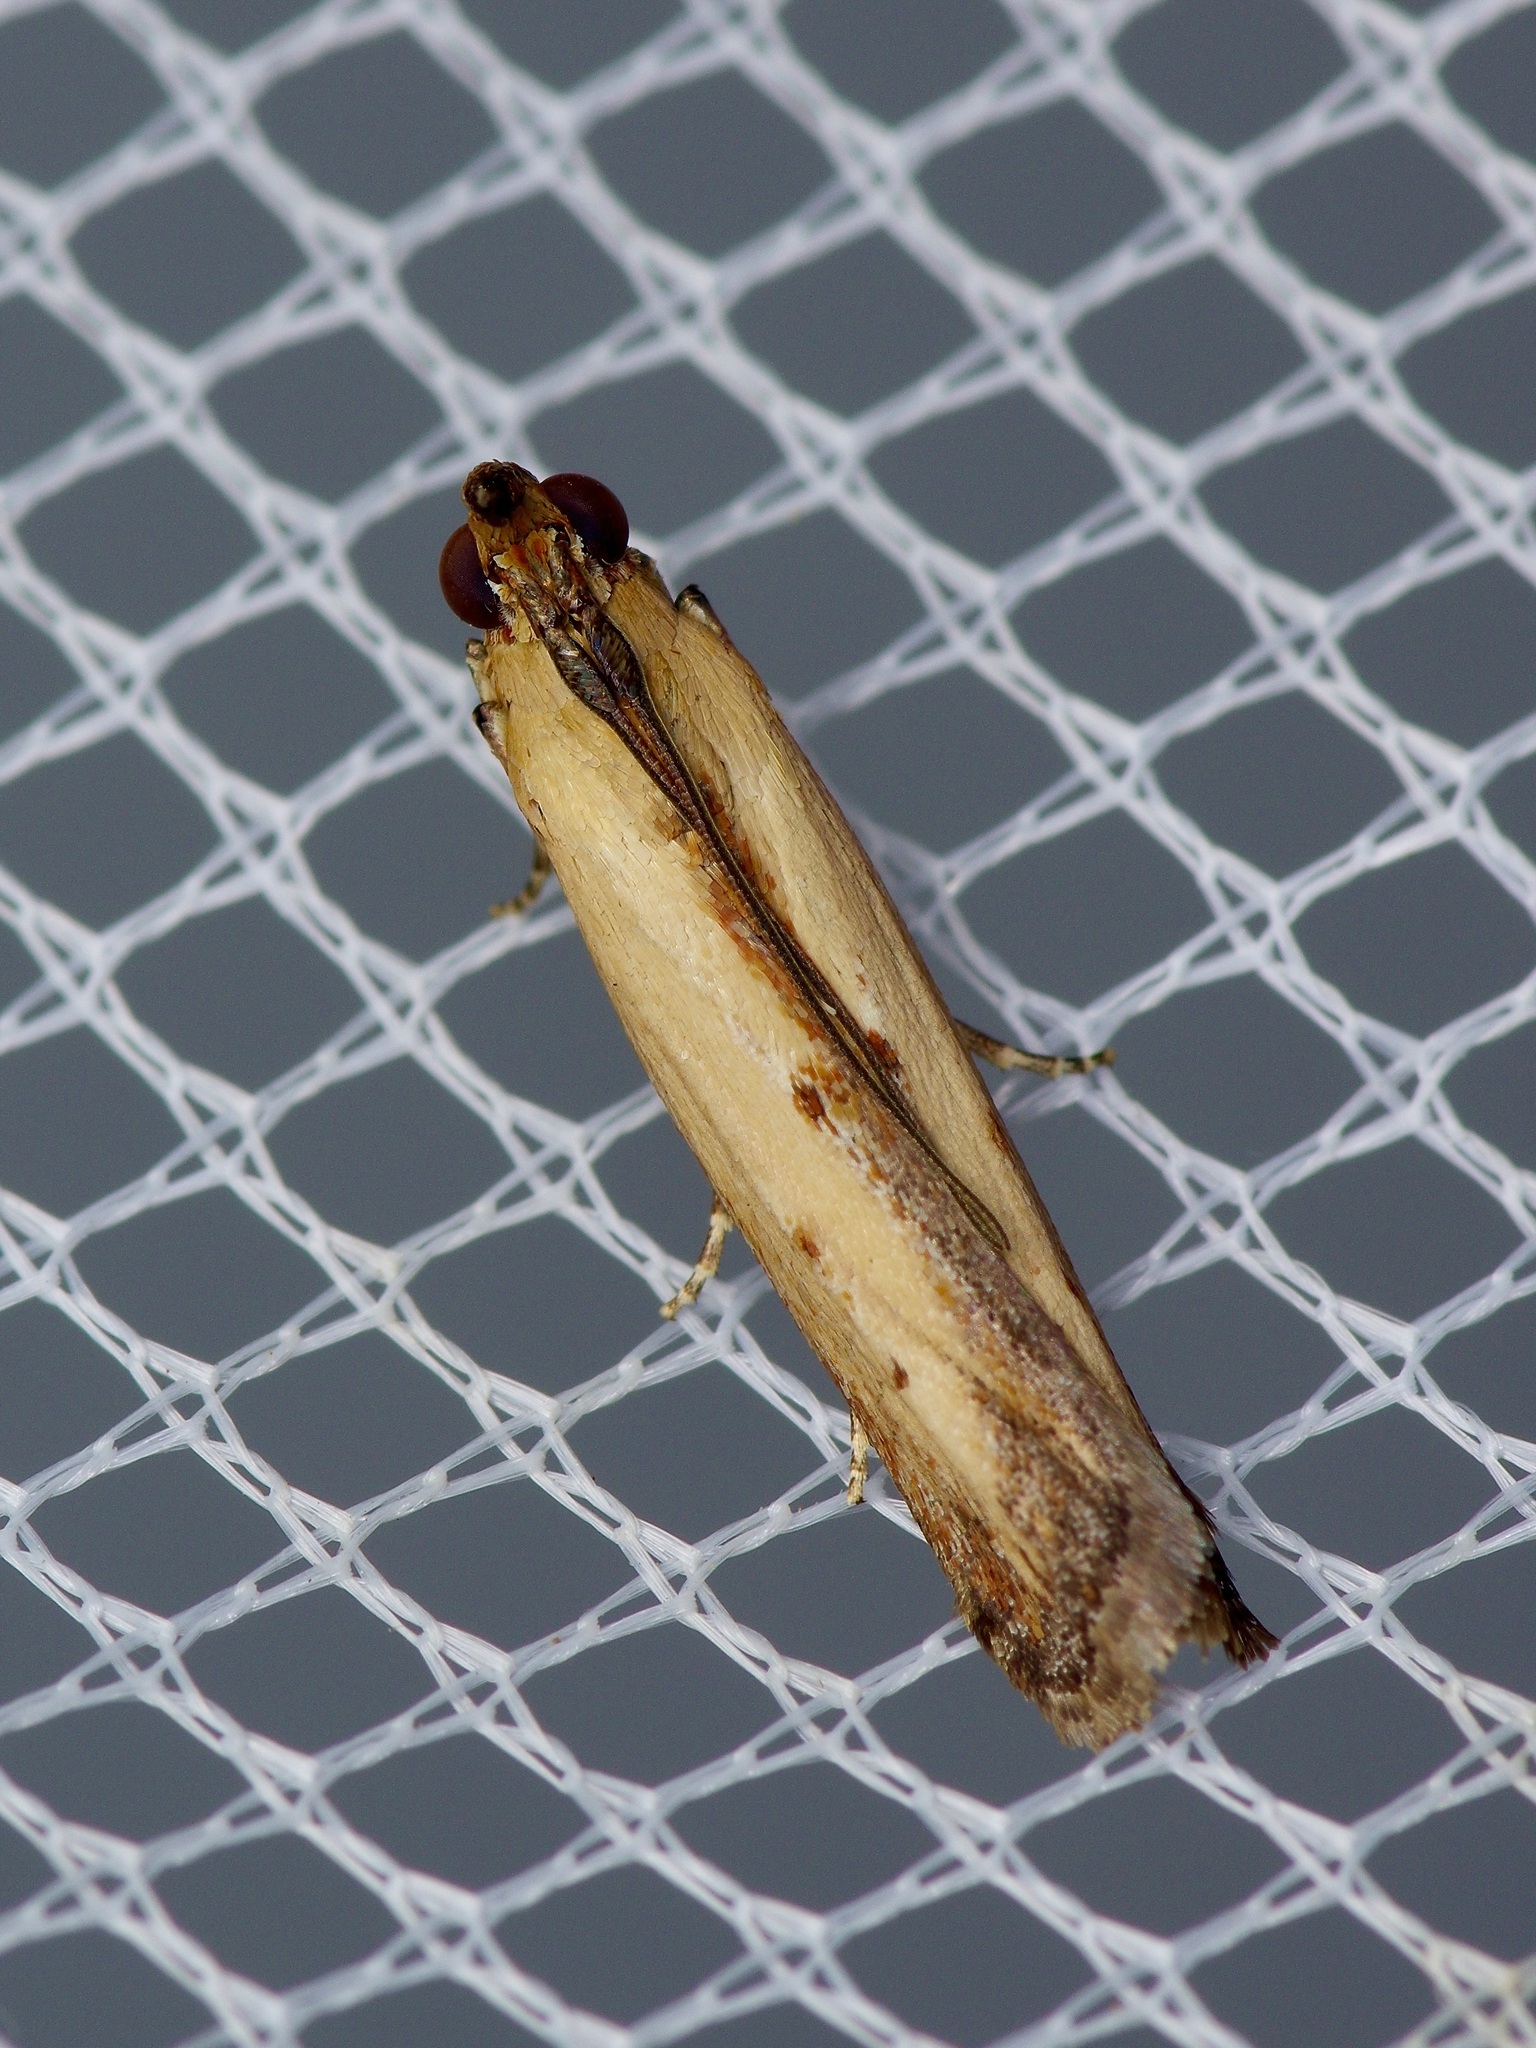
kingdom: Animalia
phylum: Arthropoda
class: Insecta
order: Lepidoptera
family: Pyralidae
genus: Elasmopalpus
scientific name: Elasmopalpus lignosella
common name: Lesser cornstalk borer
